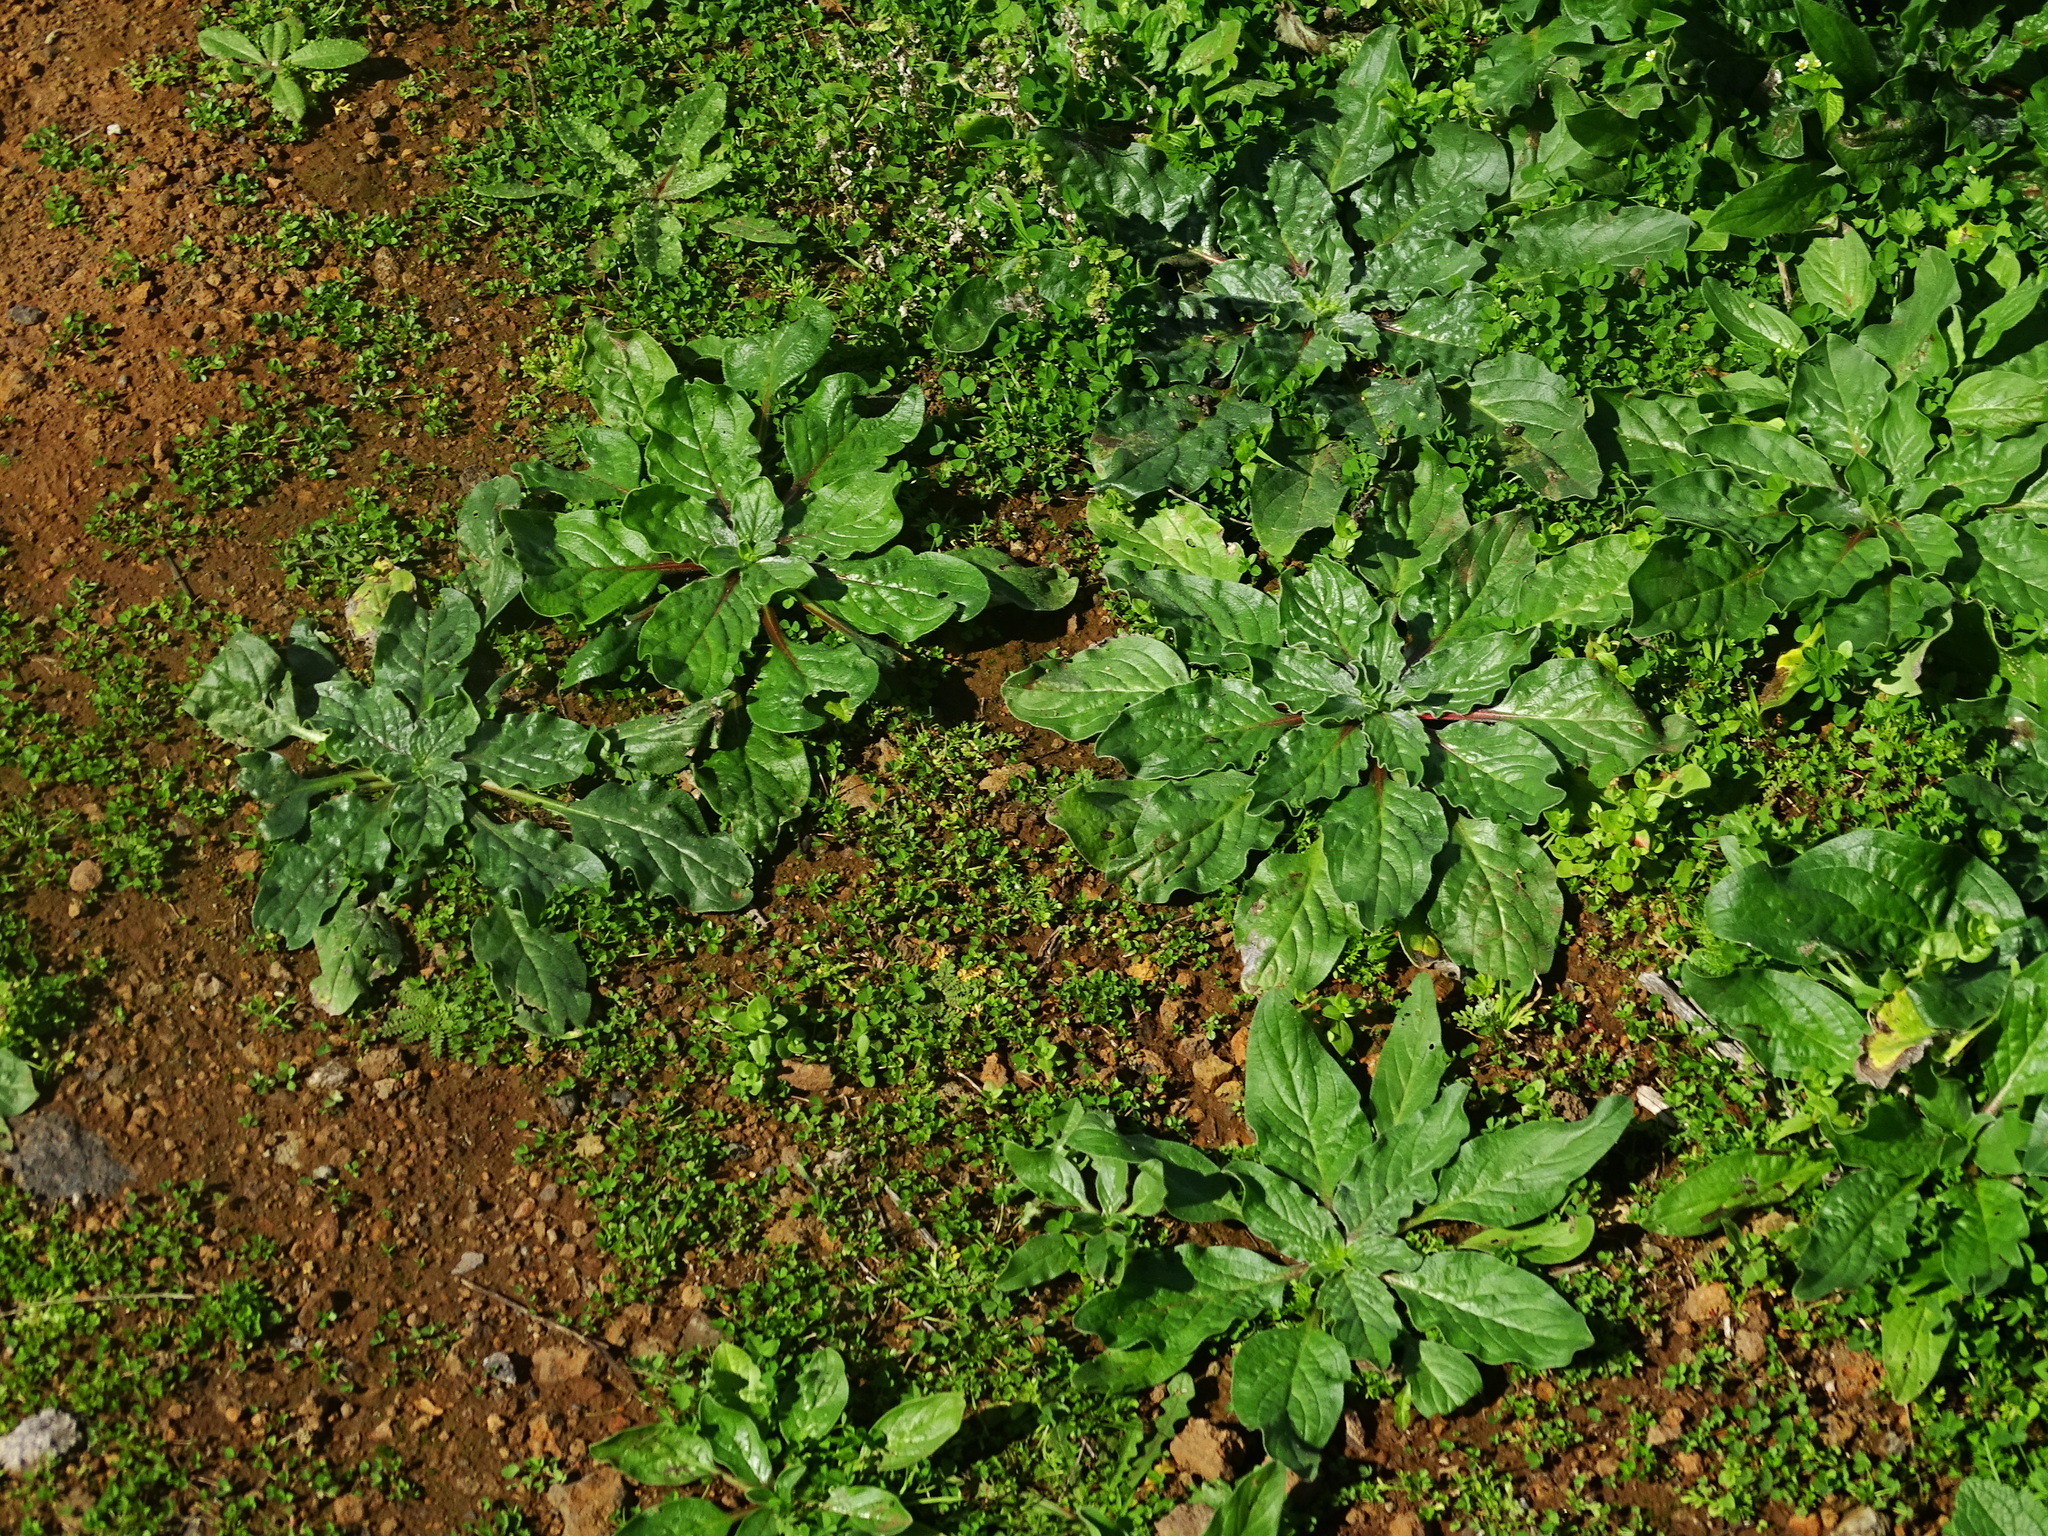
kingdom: Plantae
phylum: Tracheophyta
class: Magnoliopsida
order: Boraginales
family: Boraginaceae
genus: Echium
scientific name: Echium plantagineum
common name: Purple viper's-bugloss
